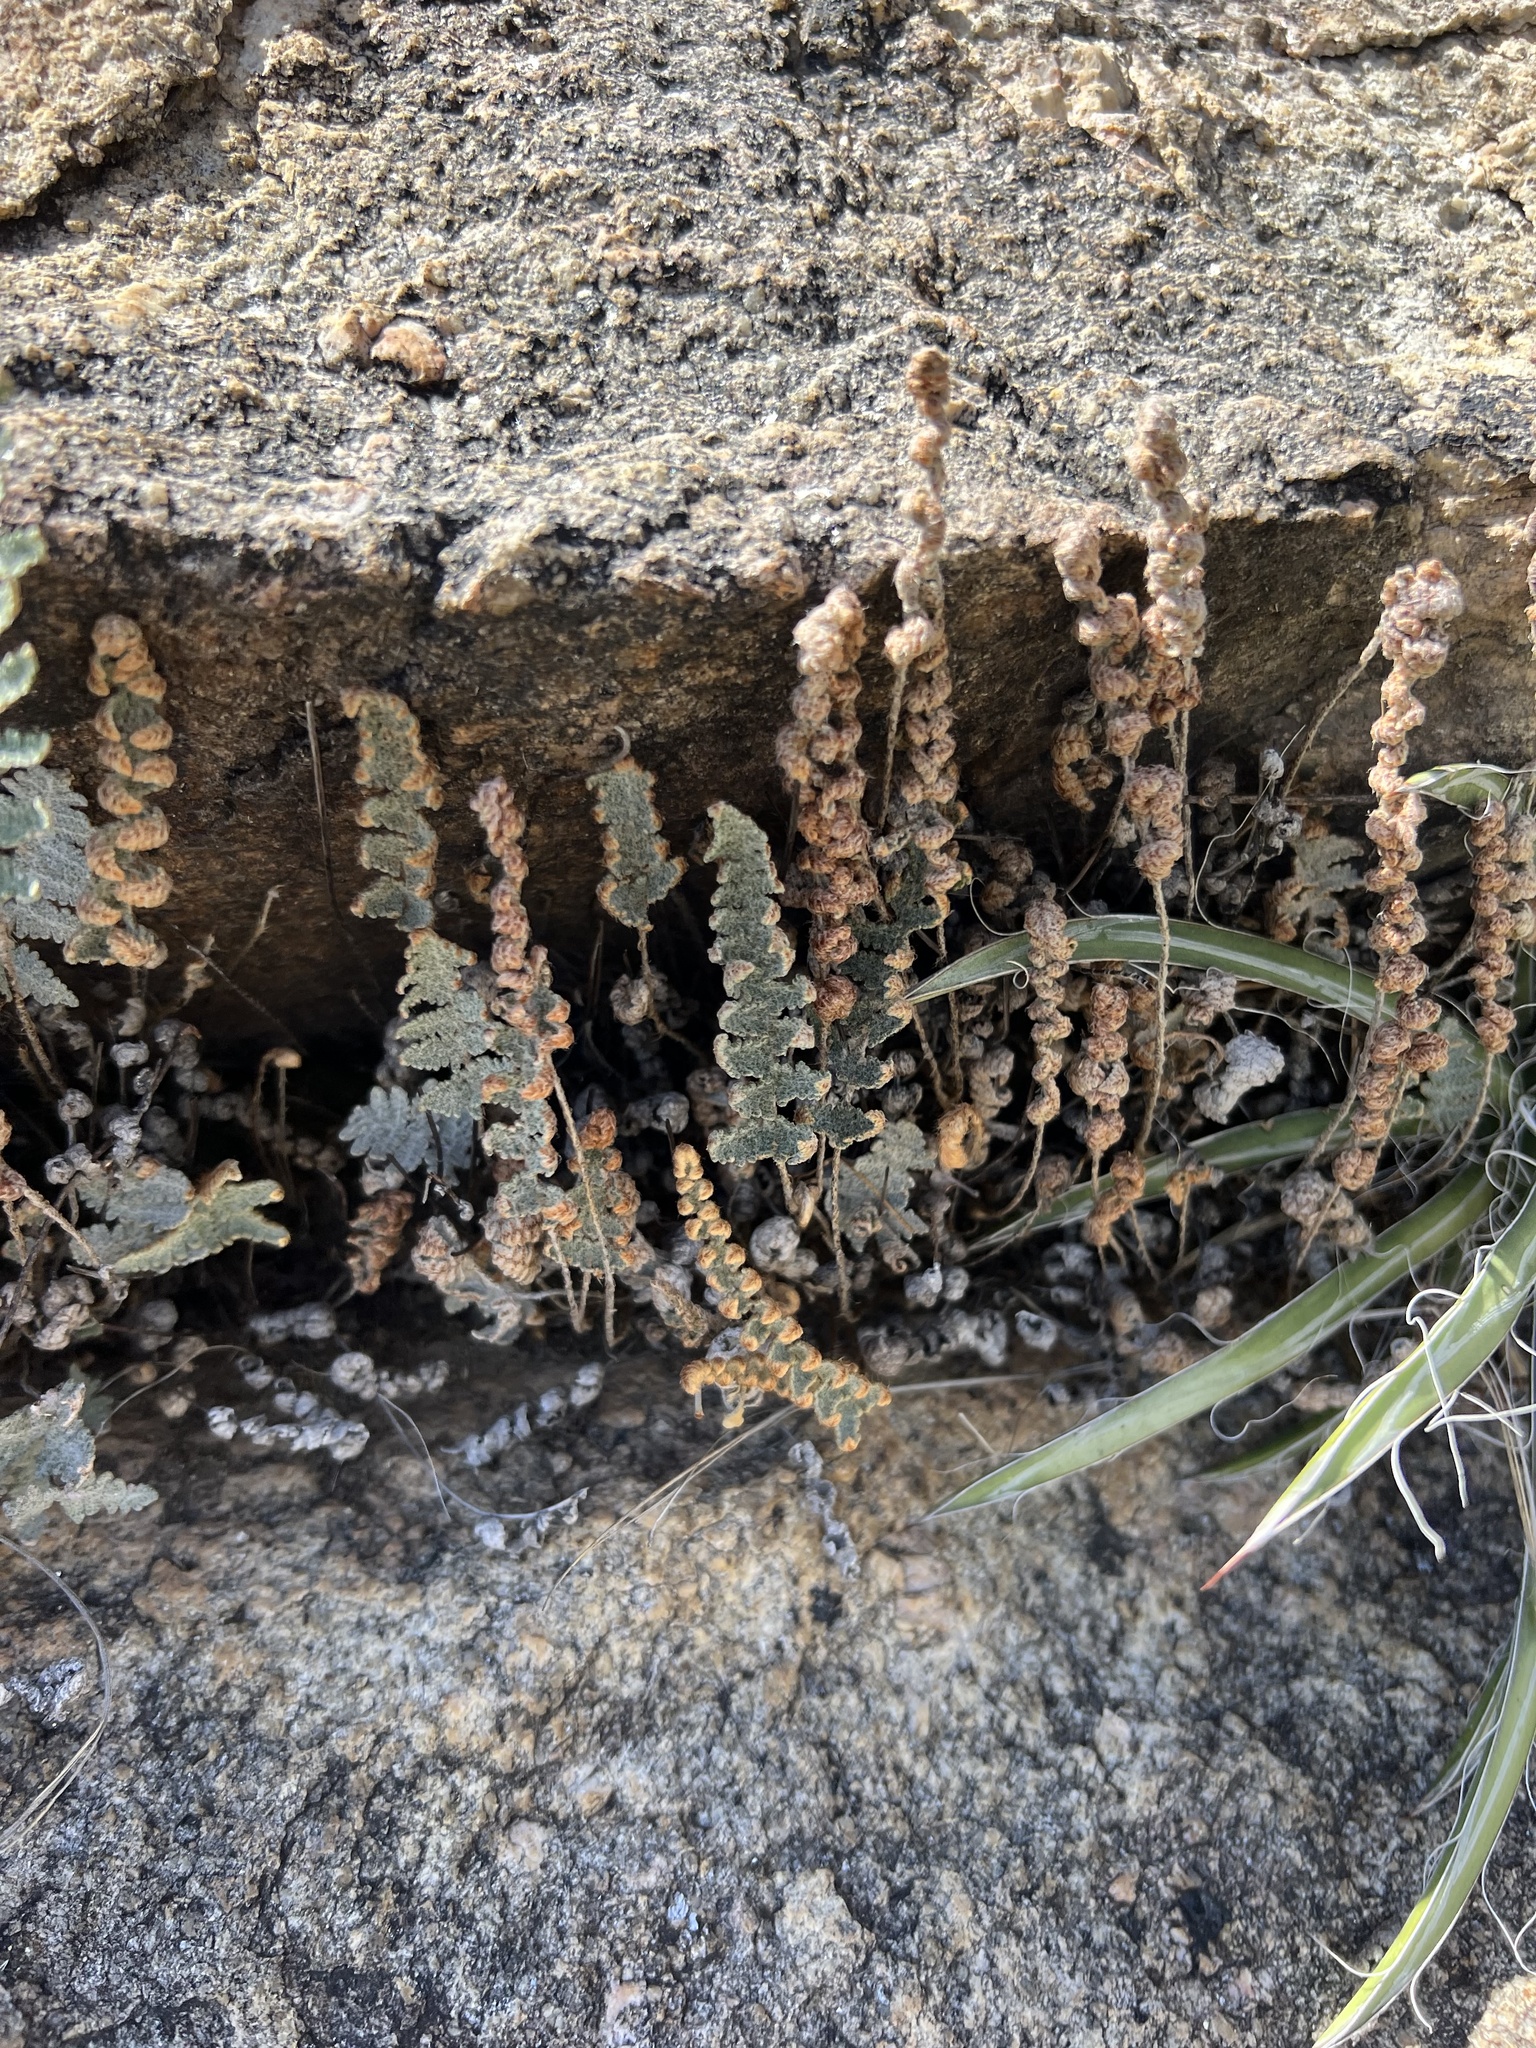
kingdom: Plantae
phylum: Tracheophyta
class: Polypodiopsida
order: Polypodiales
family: Pteridaceae
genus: Myriopteris
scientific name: Myriopteris lindheimeri
